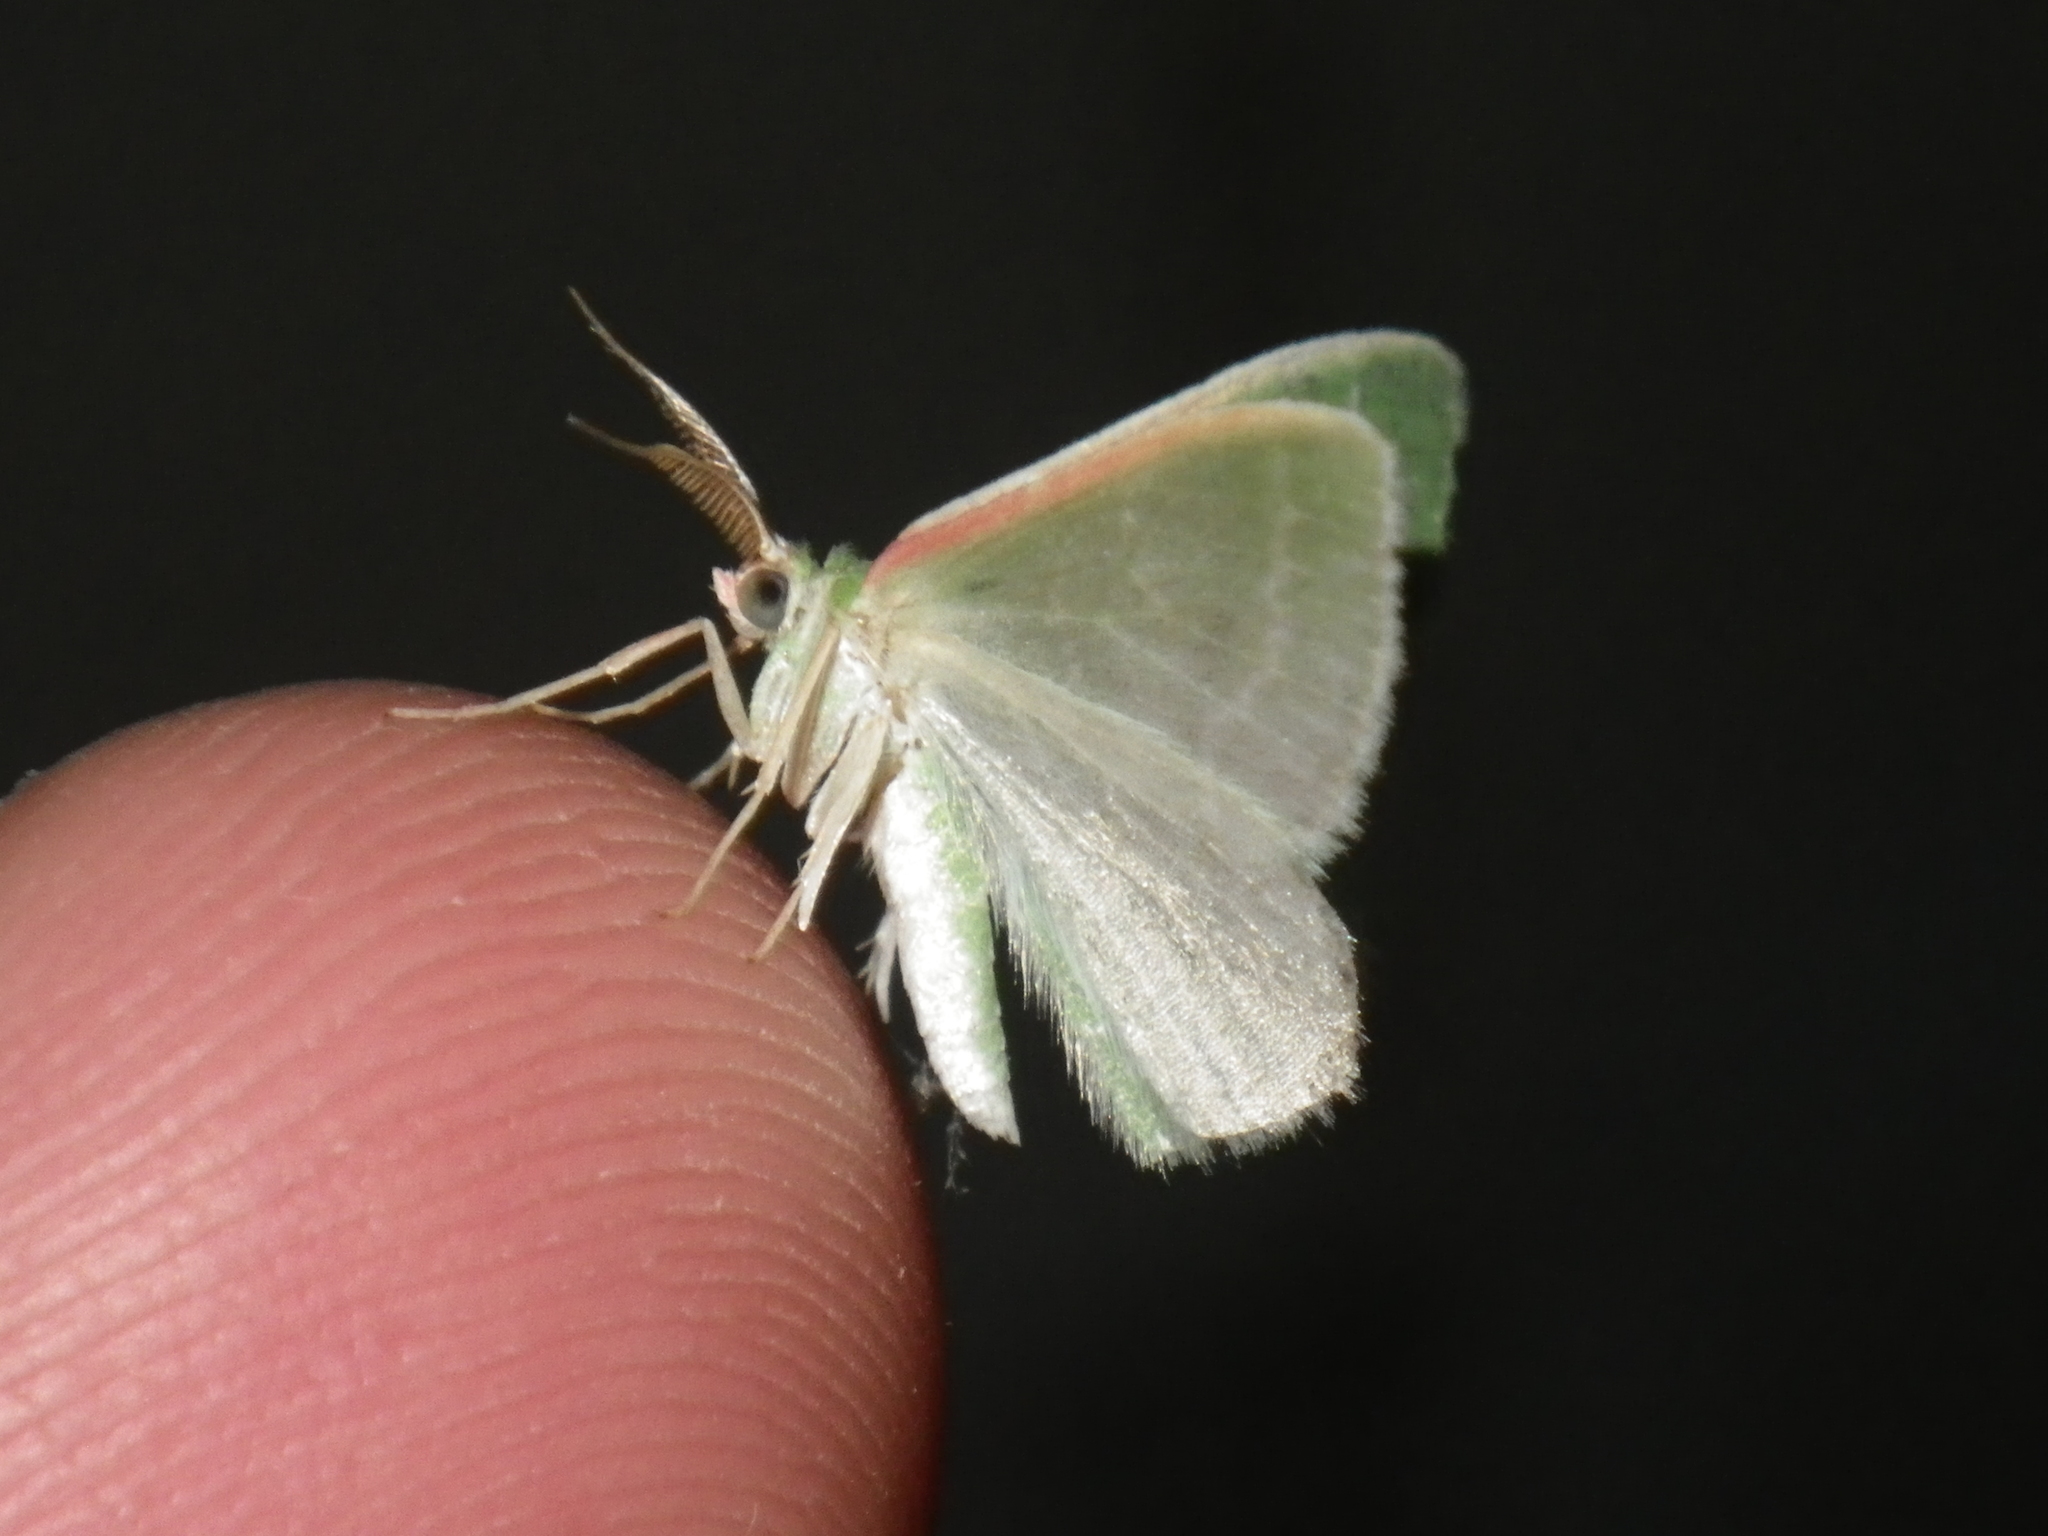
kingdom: Animalia
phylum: Arthropoda
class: Insecta
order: Lepidoptera
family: Geometridae
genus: Synchlora
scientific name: Synchlora frondaria
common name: Southern emerald
